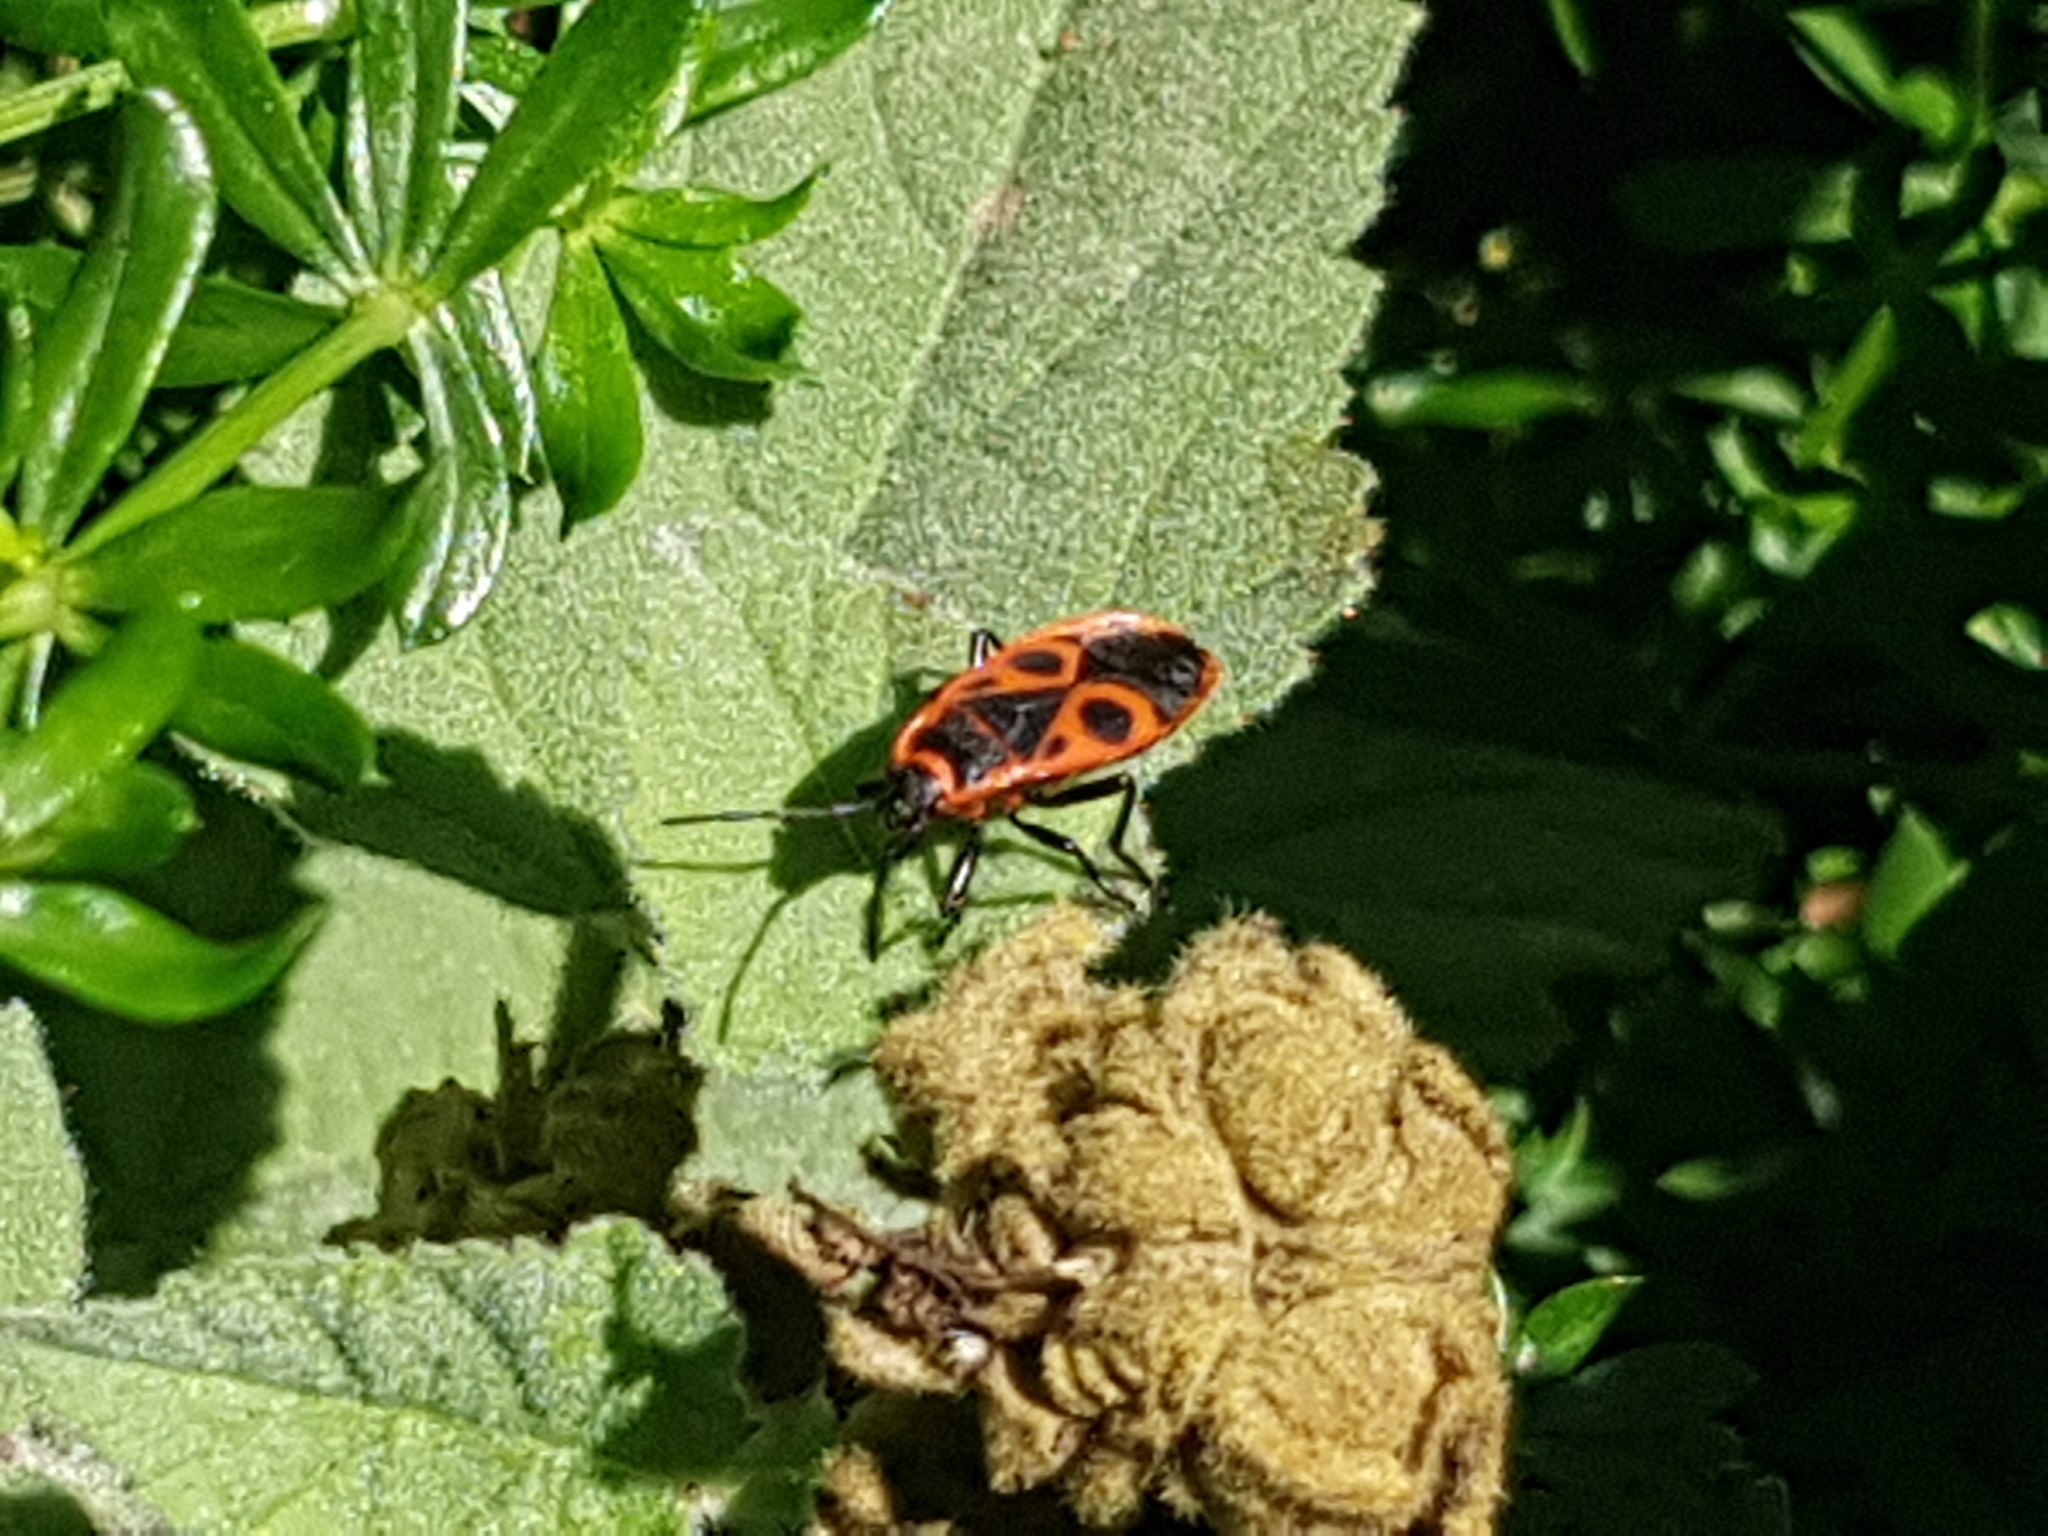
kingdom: Animalia
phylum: Arthropoda
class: Insecta
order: Hemiptera
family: Pyrrhocoridae
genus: Pyrrhocoris
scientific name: Pyrrhocoris apterus
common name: Firebug
